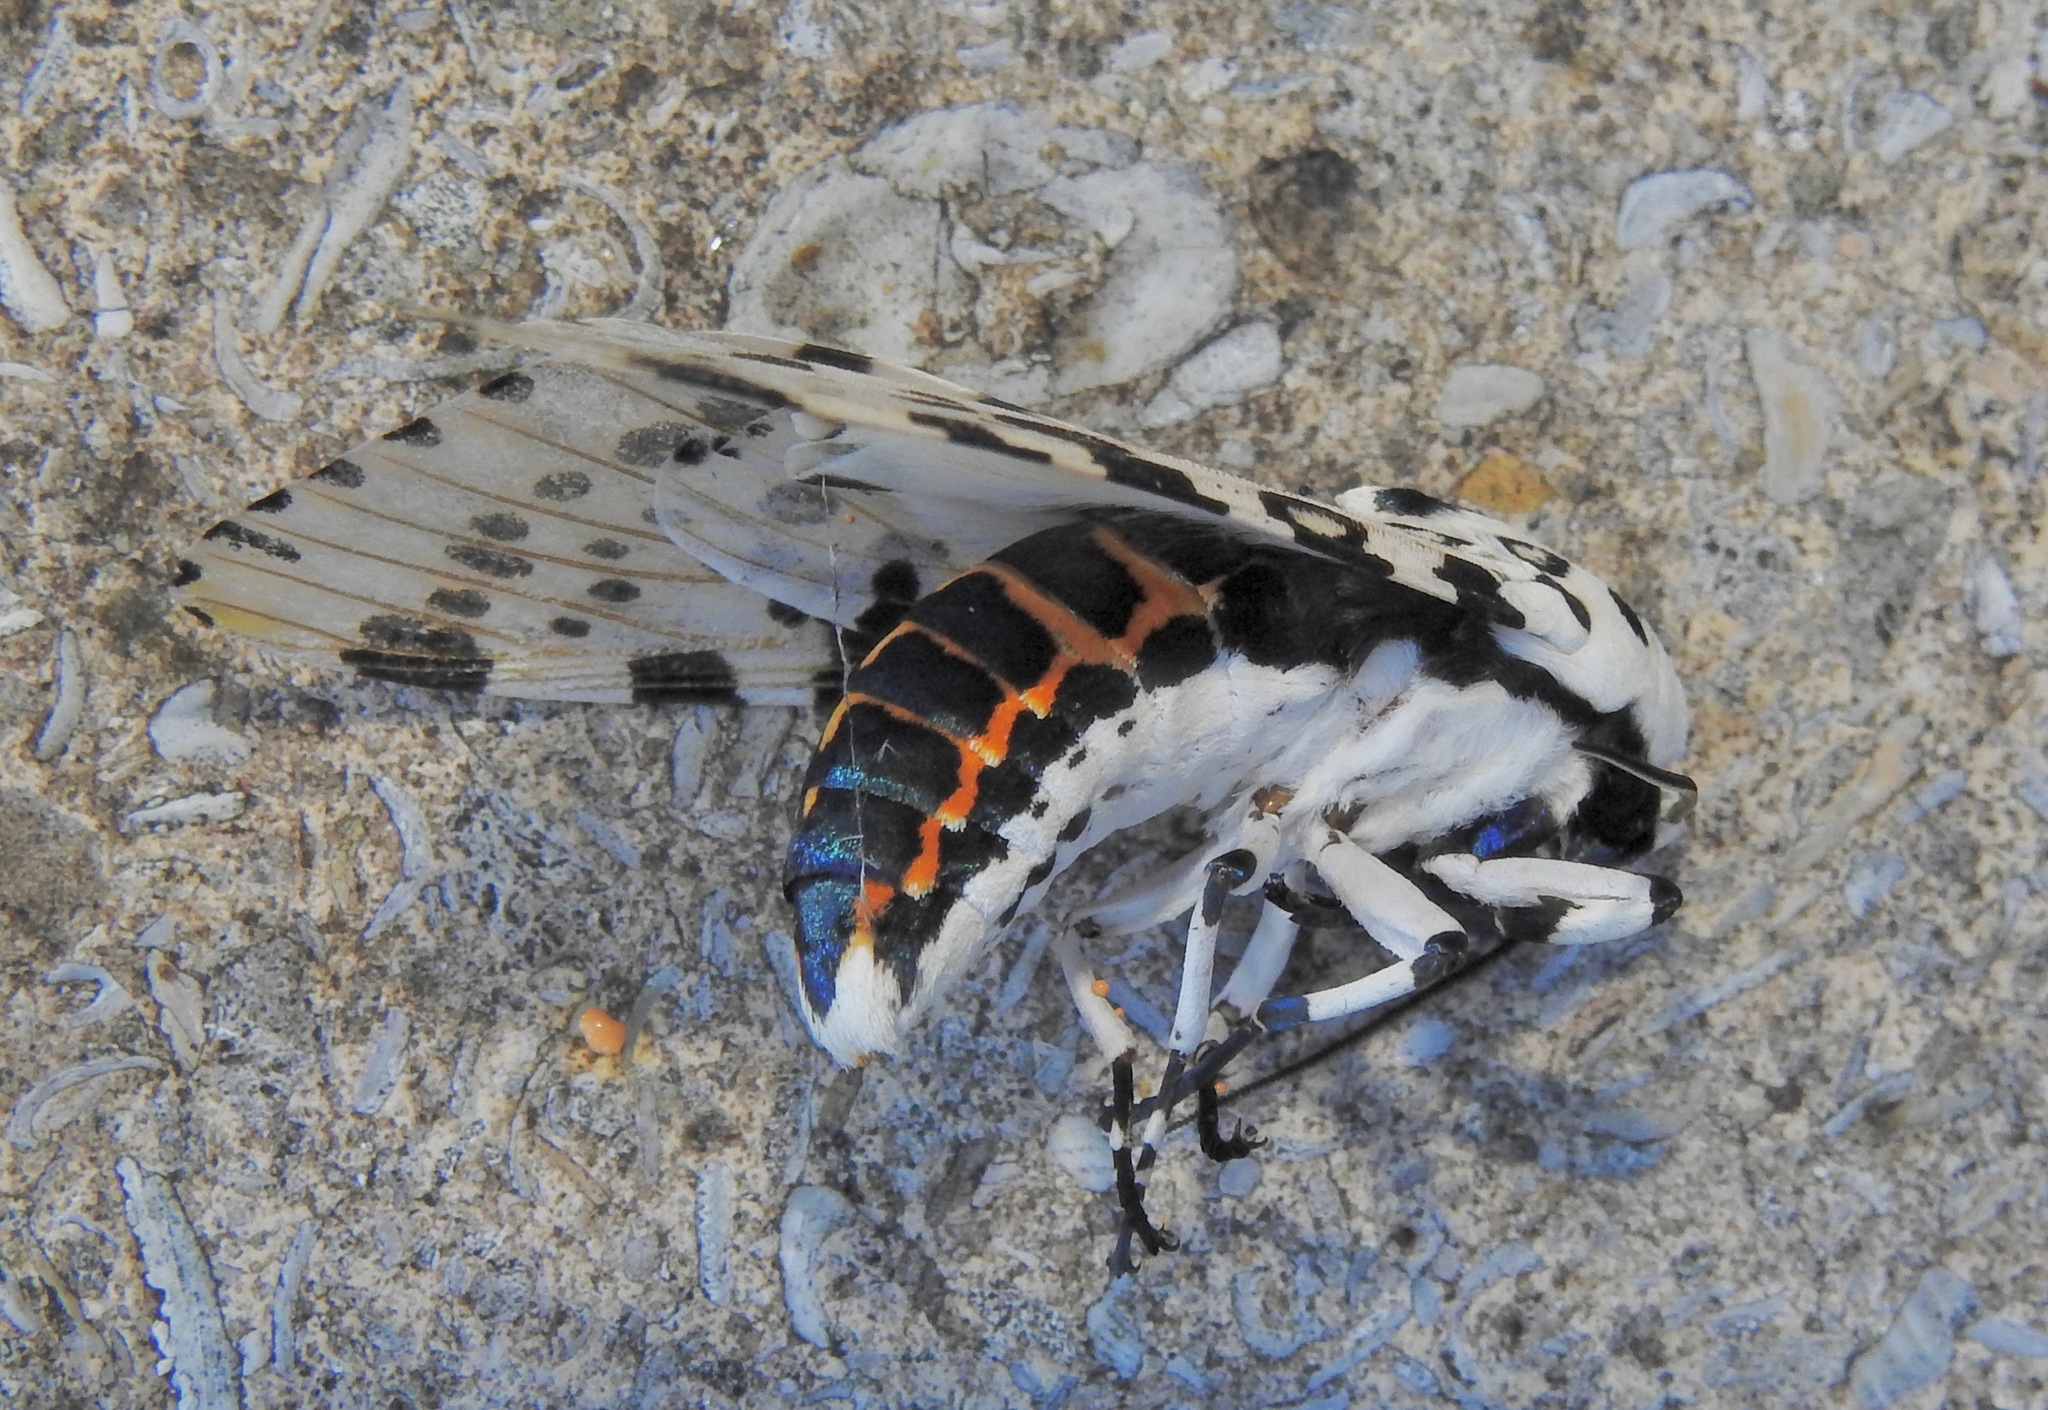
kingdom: Animalia
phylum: Arthropoda
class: Insecta
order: Lepidoptera
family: Erebidae
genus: Hypercompe
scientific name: Hypercompe scribonia
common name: Giant leopard moth
